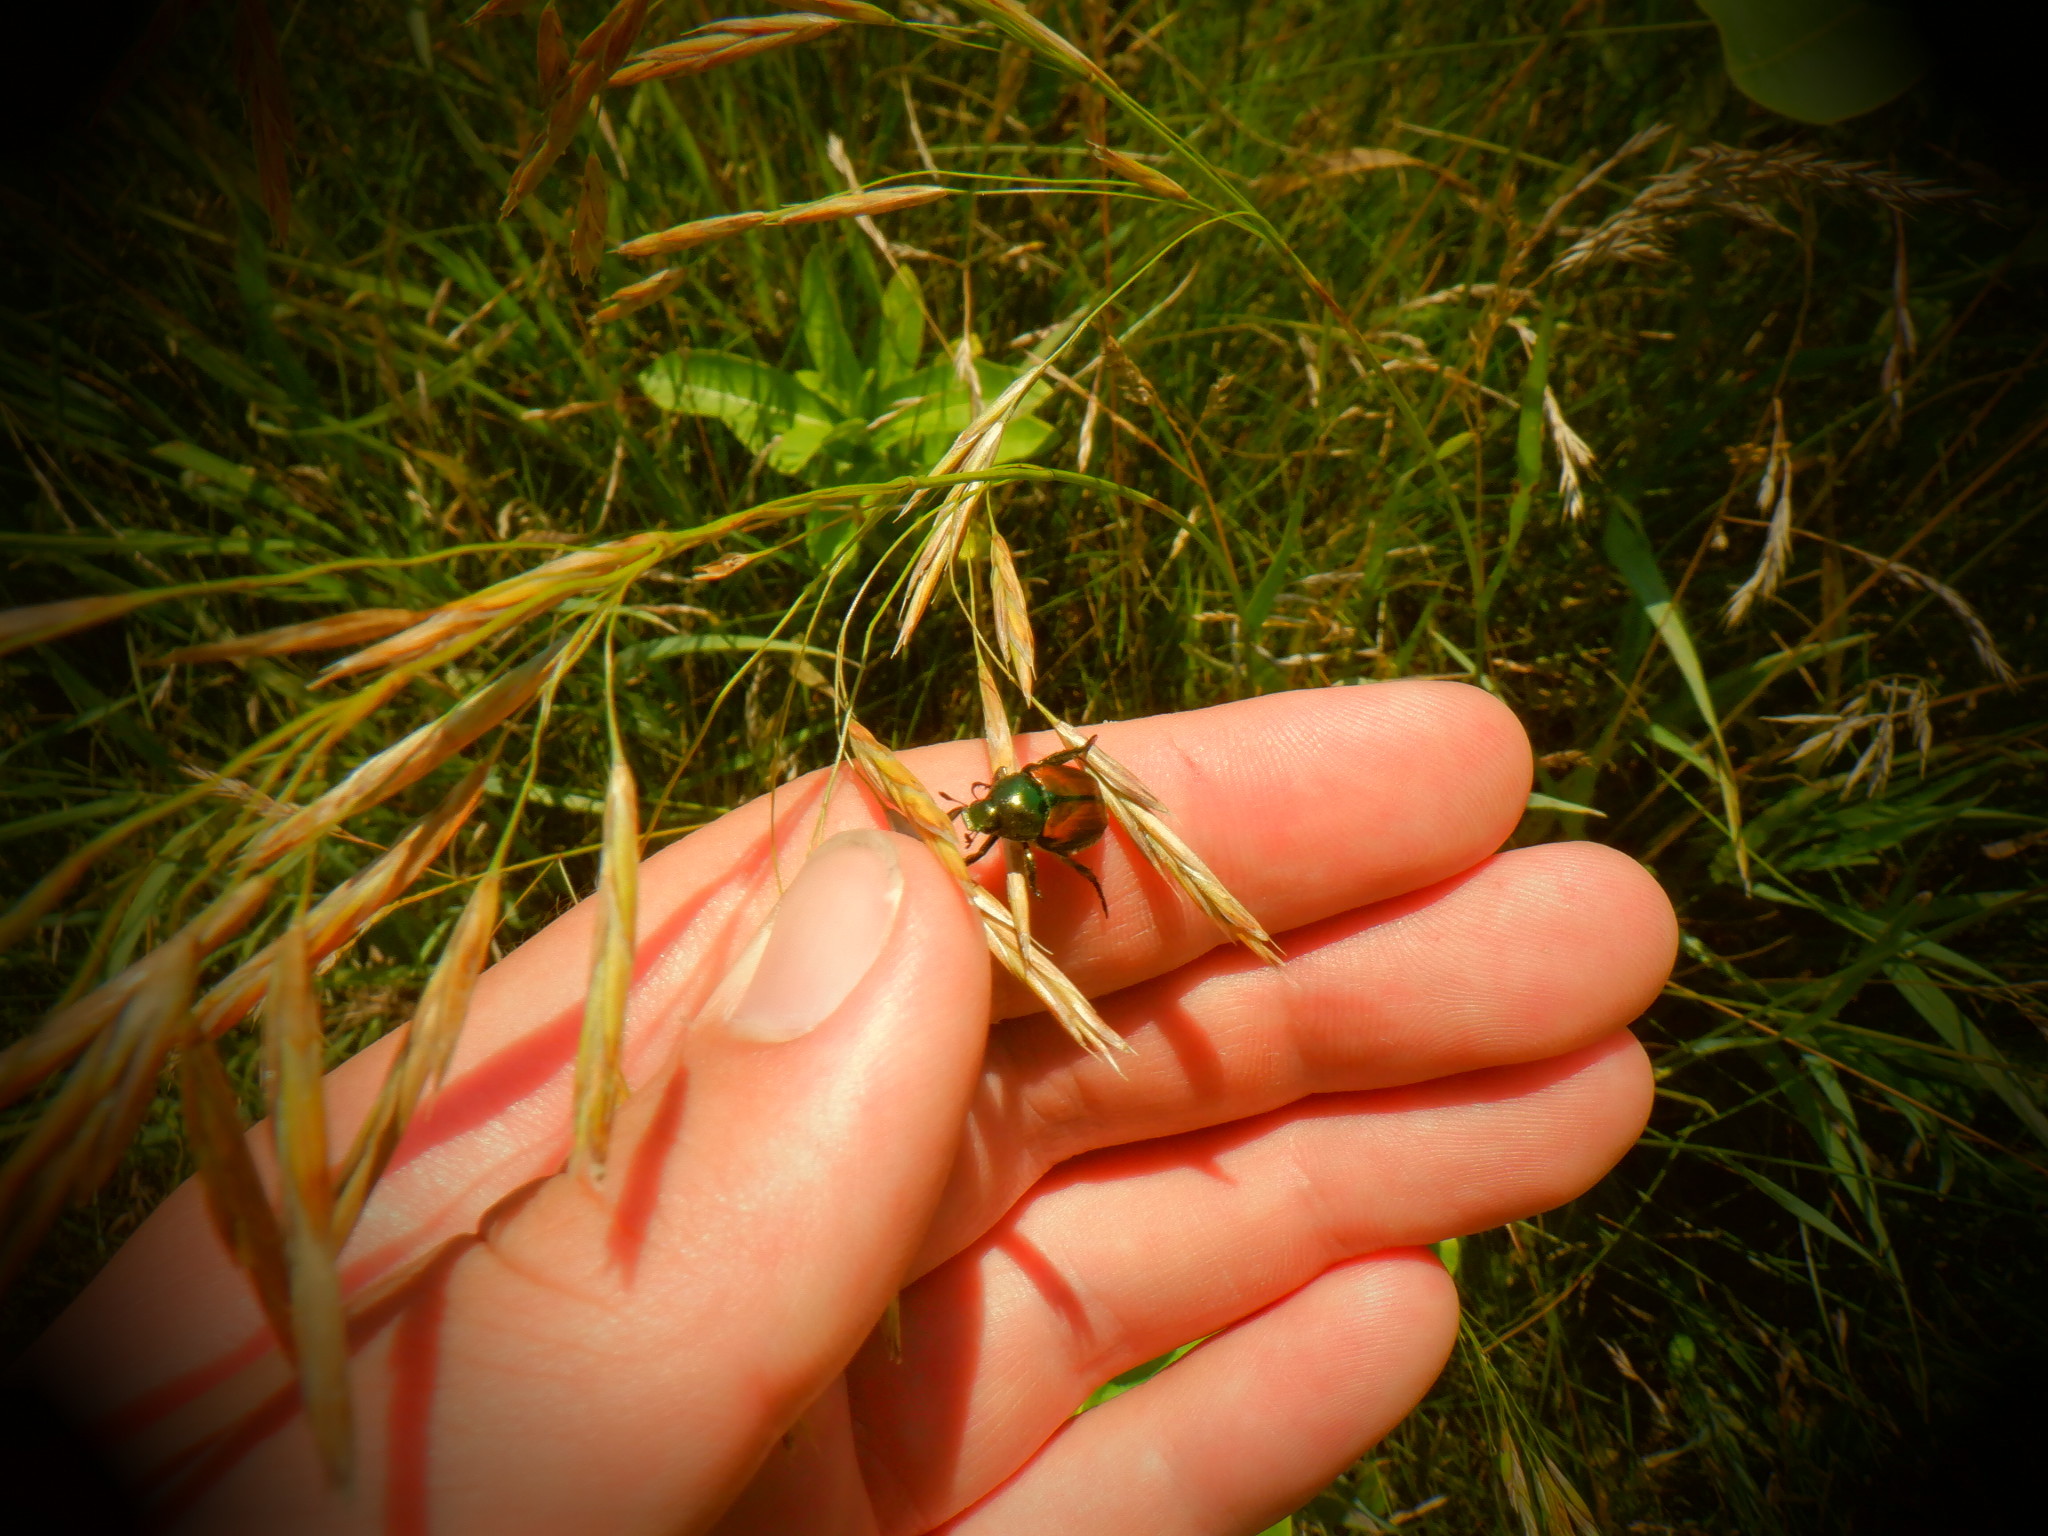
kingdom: Animalia
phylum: Arthropoda
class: Insecta
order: Coleoptera
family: Scarabaeidae
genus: Popillia
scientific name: Popillia japonica
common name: Japanese beetle
